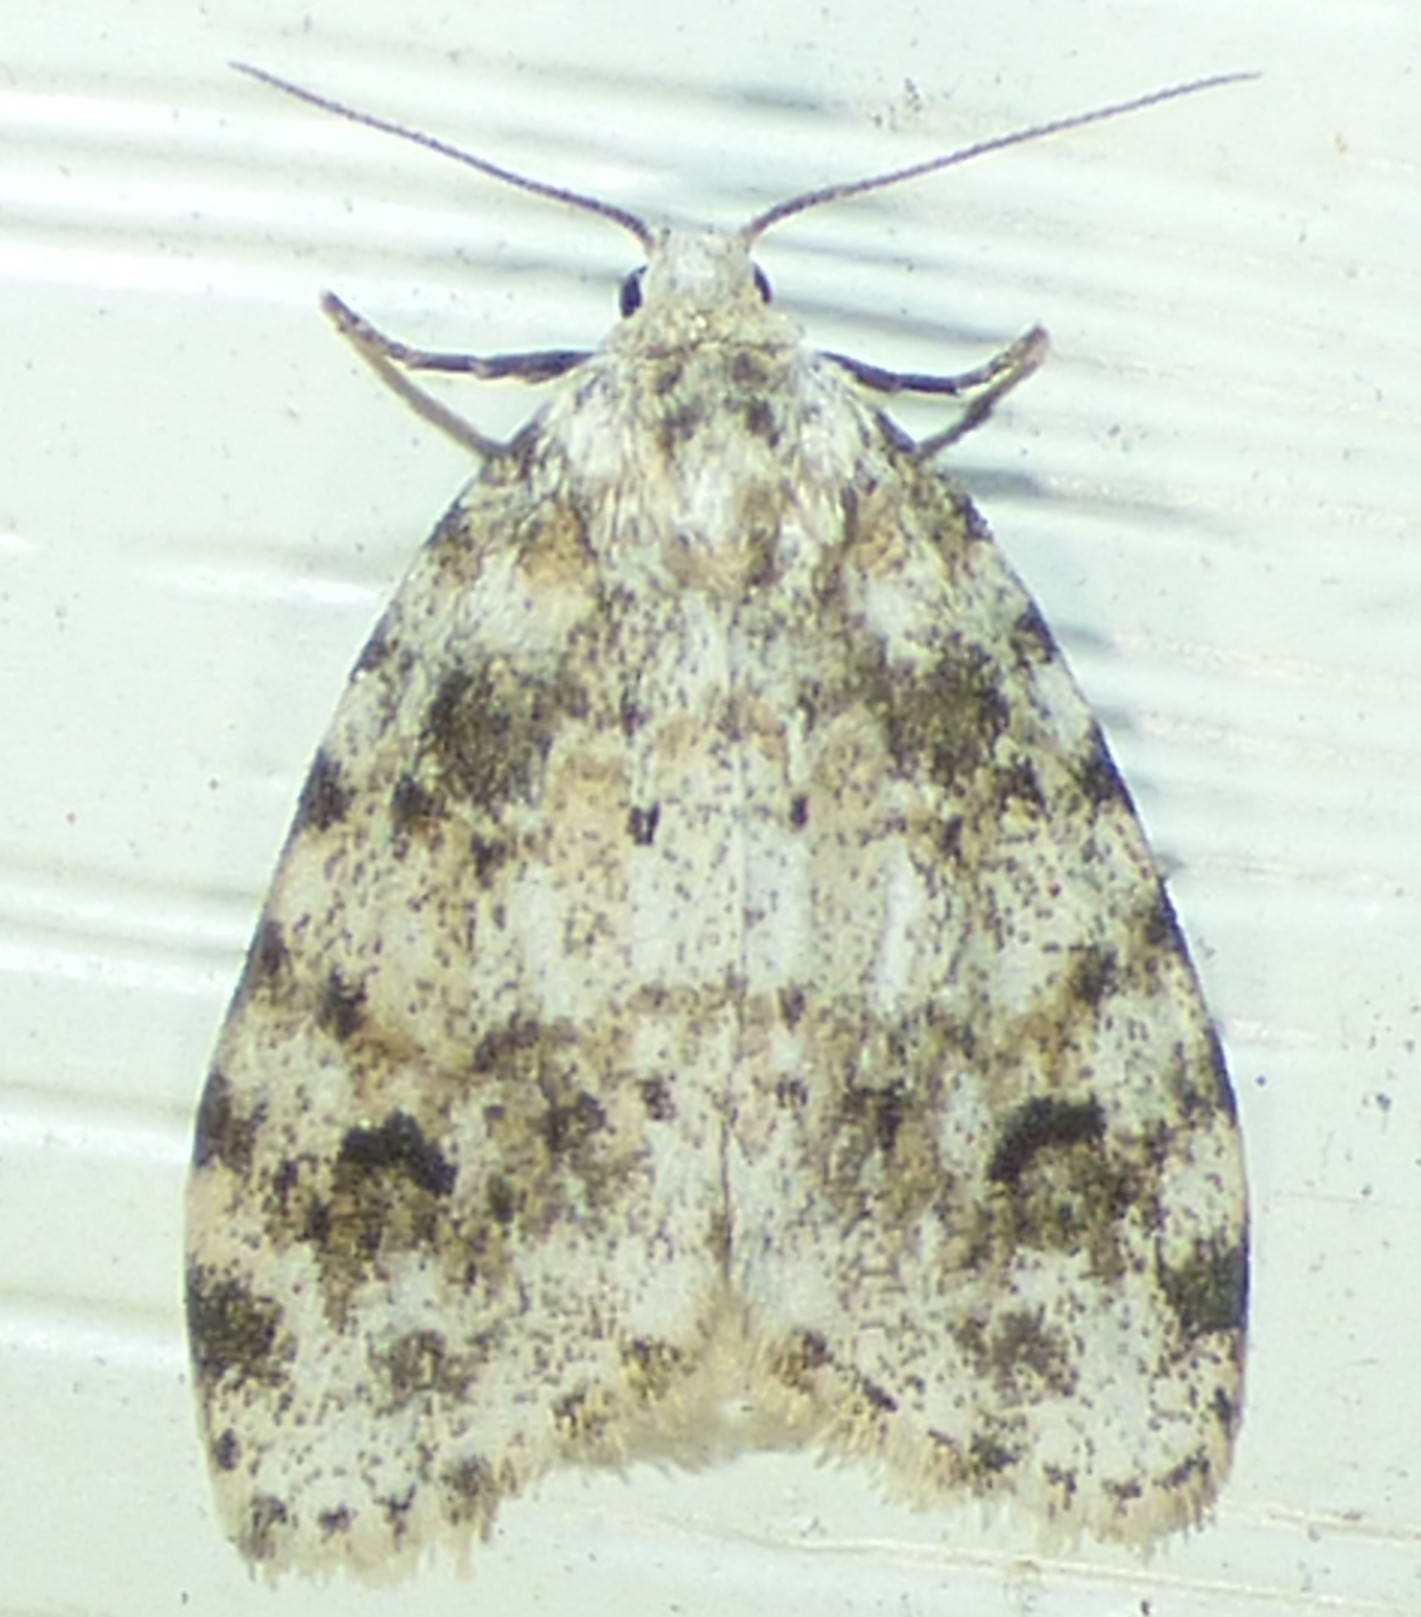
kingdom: Animalia
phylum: Arthropoda
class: Insecta
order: Lepidoptera
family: Erebidae
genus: Clemensia
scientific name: Clemensia ochreata
